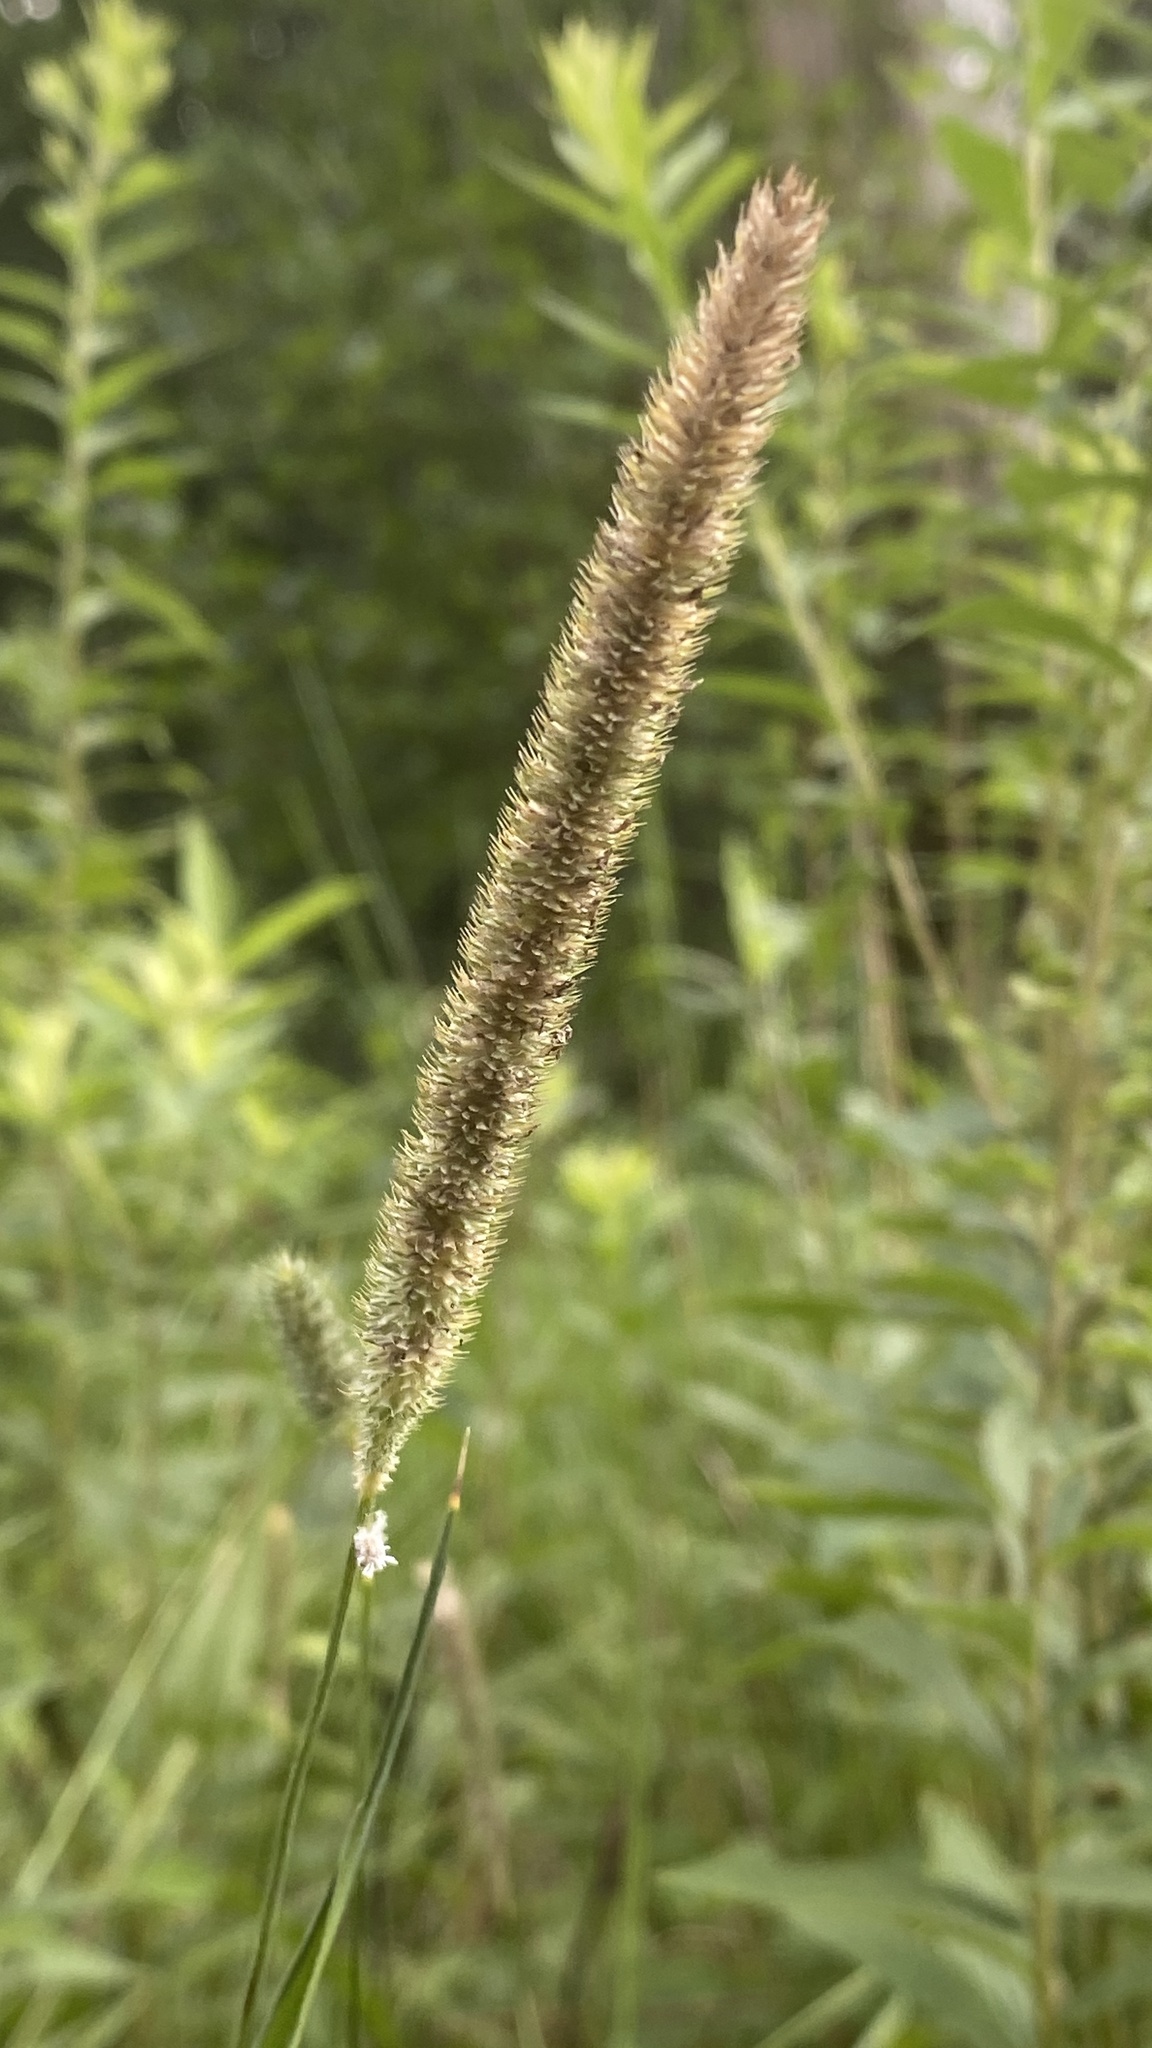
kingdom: Plantae
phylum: Tracheophyta
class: Liliopsida
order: Poales
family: Poaceae
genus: Phleum
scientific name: Phleum pratense
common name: Timothy grass
